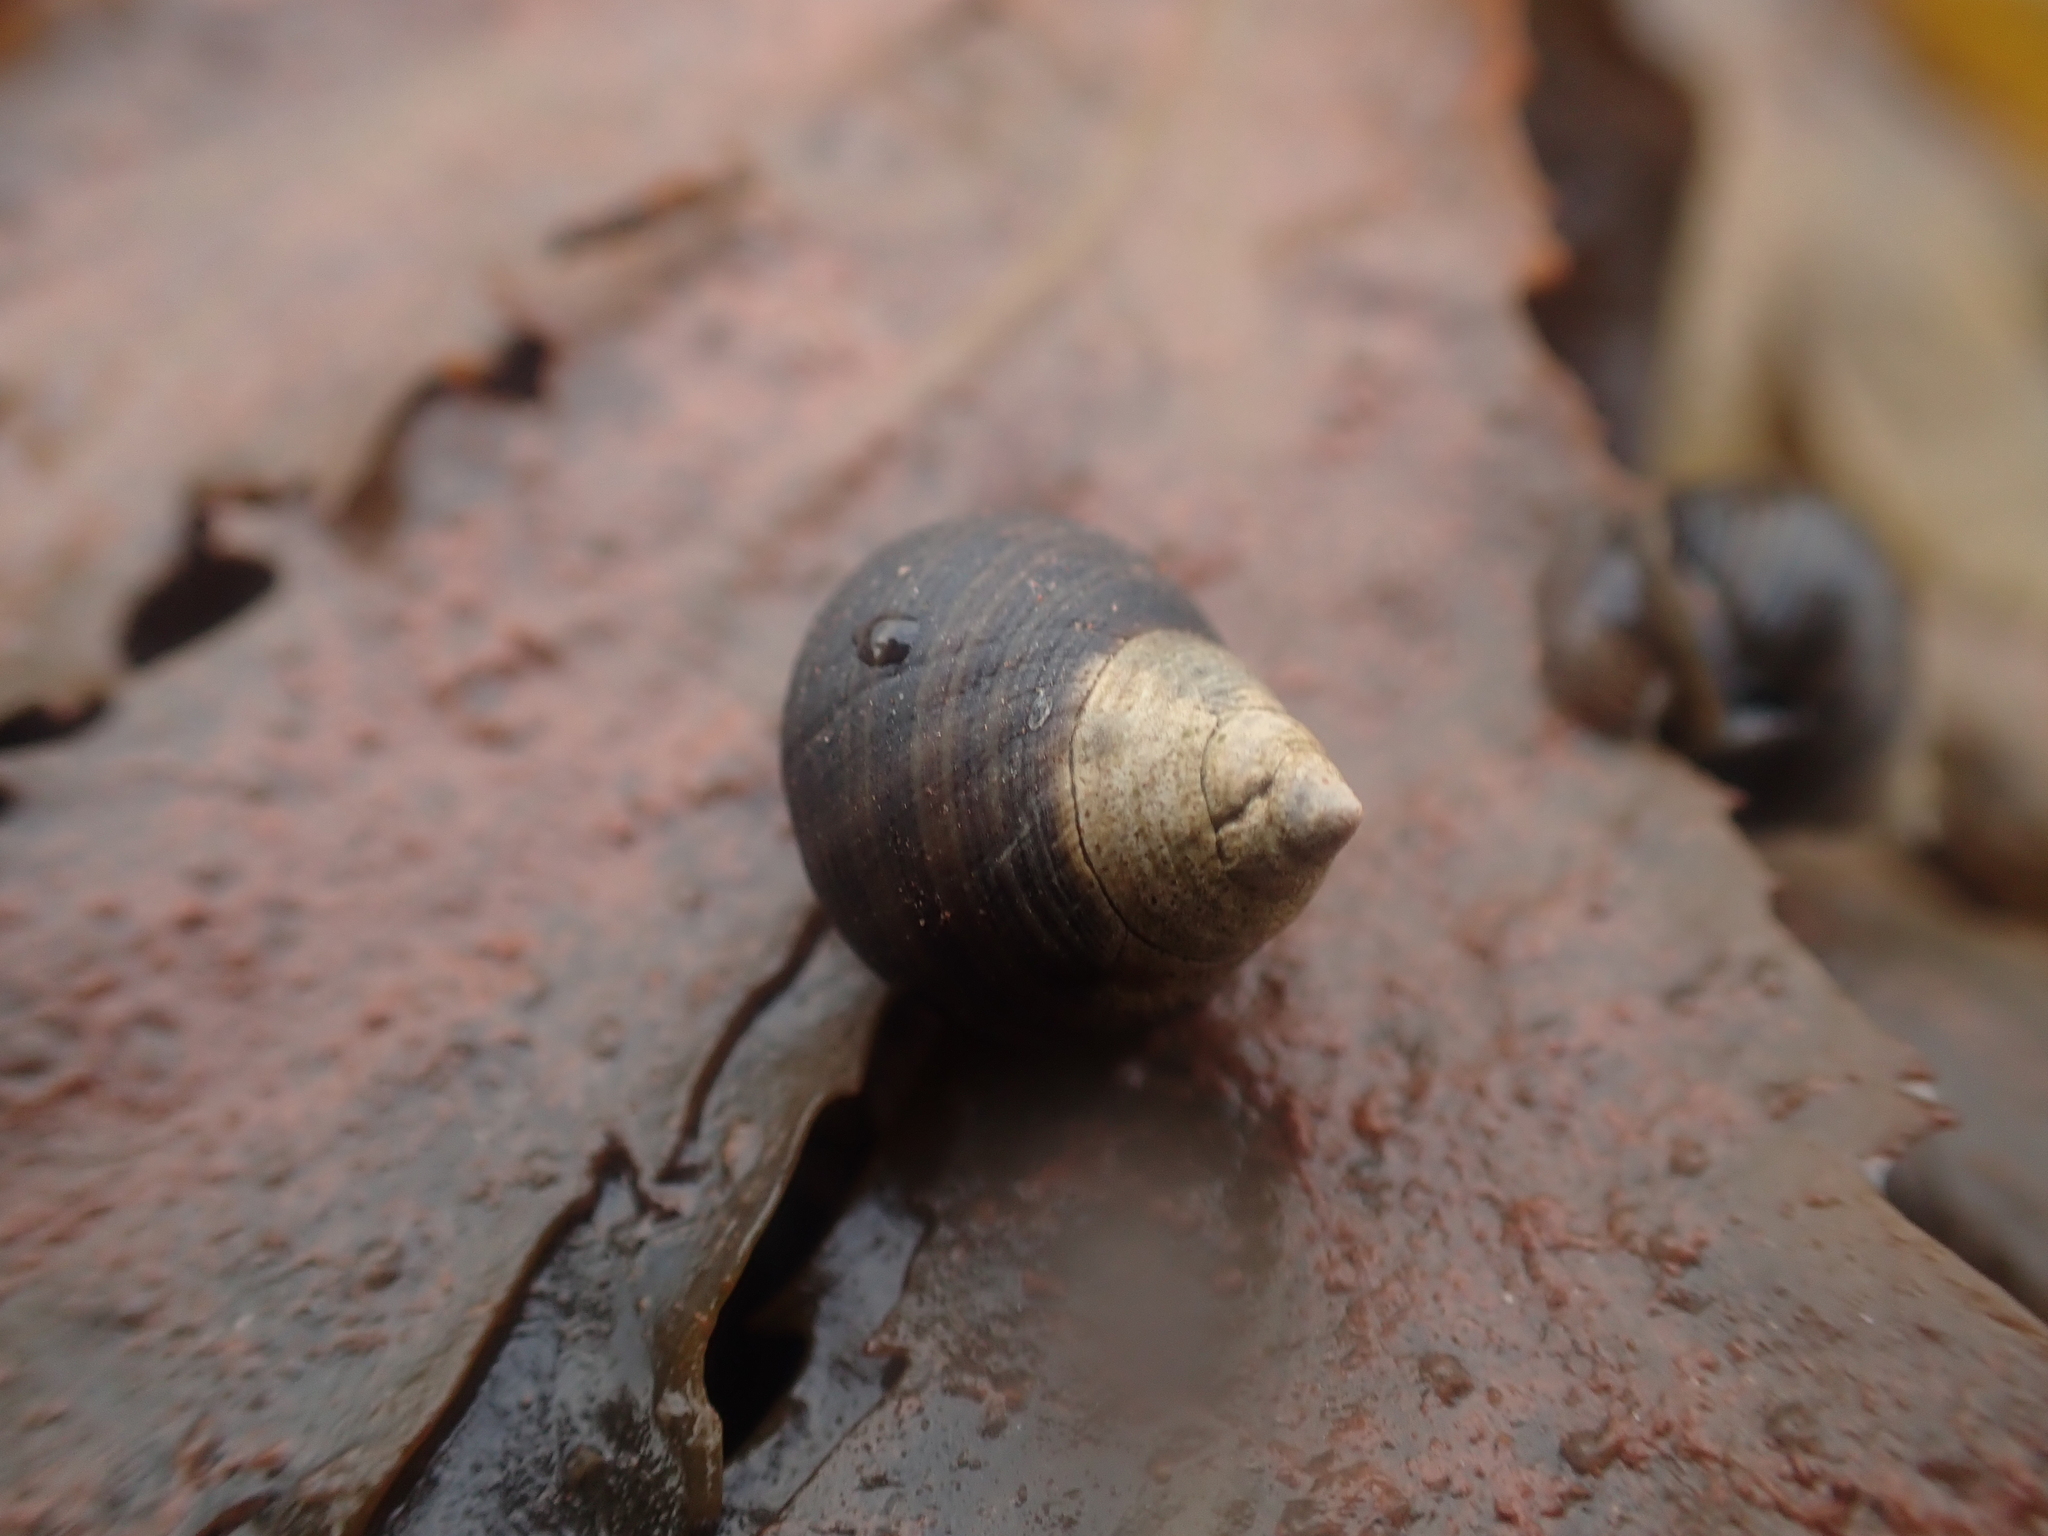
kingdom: Animalia
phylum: Mollusca
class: Gastropoda
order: Littorinimorpha
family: Littorinidae
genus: Littorina
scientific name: Littorina littorea
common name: Common periwinkle
